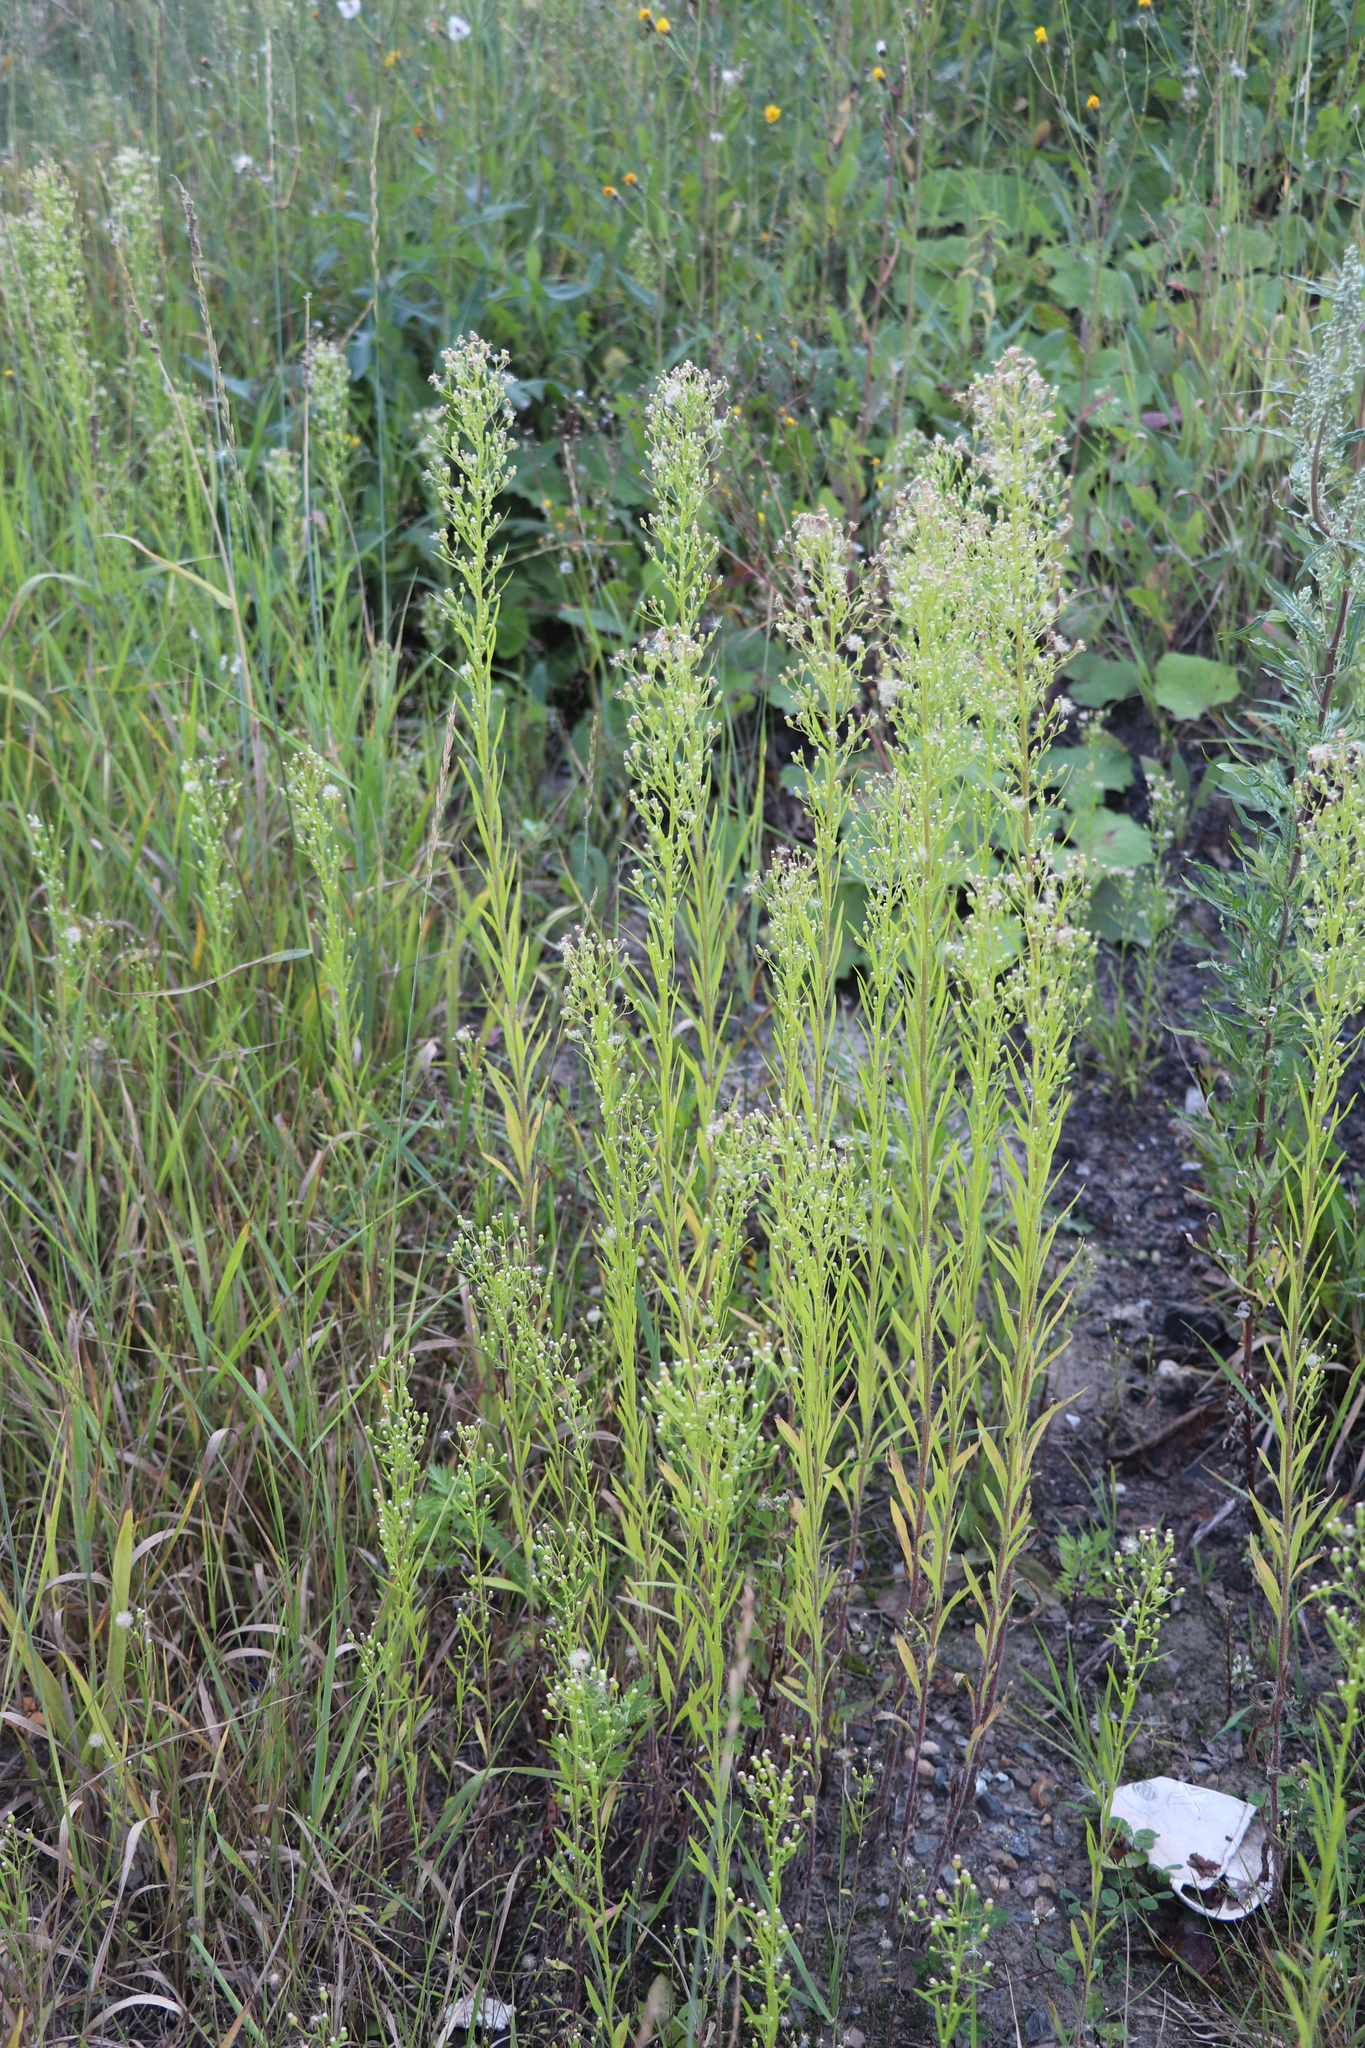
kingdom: Plantae
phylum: Tracheophyta
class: Magnoliopsida
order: Asterales
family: Asteraceae
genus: Erigeron
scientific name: Erigeron canadensis
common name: Canadian fleabane
